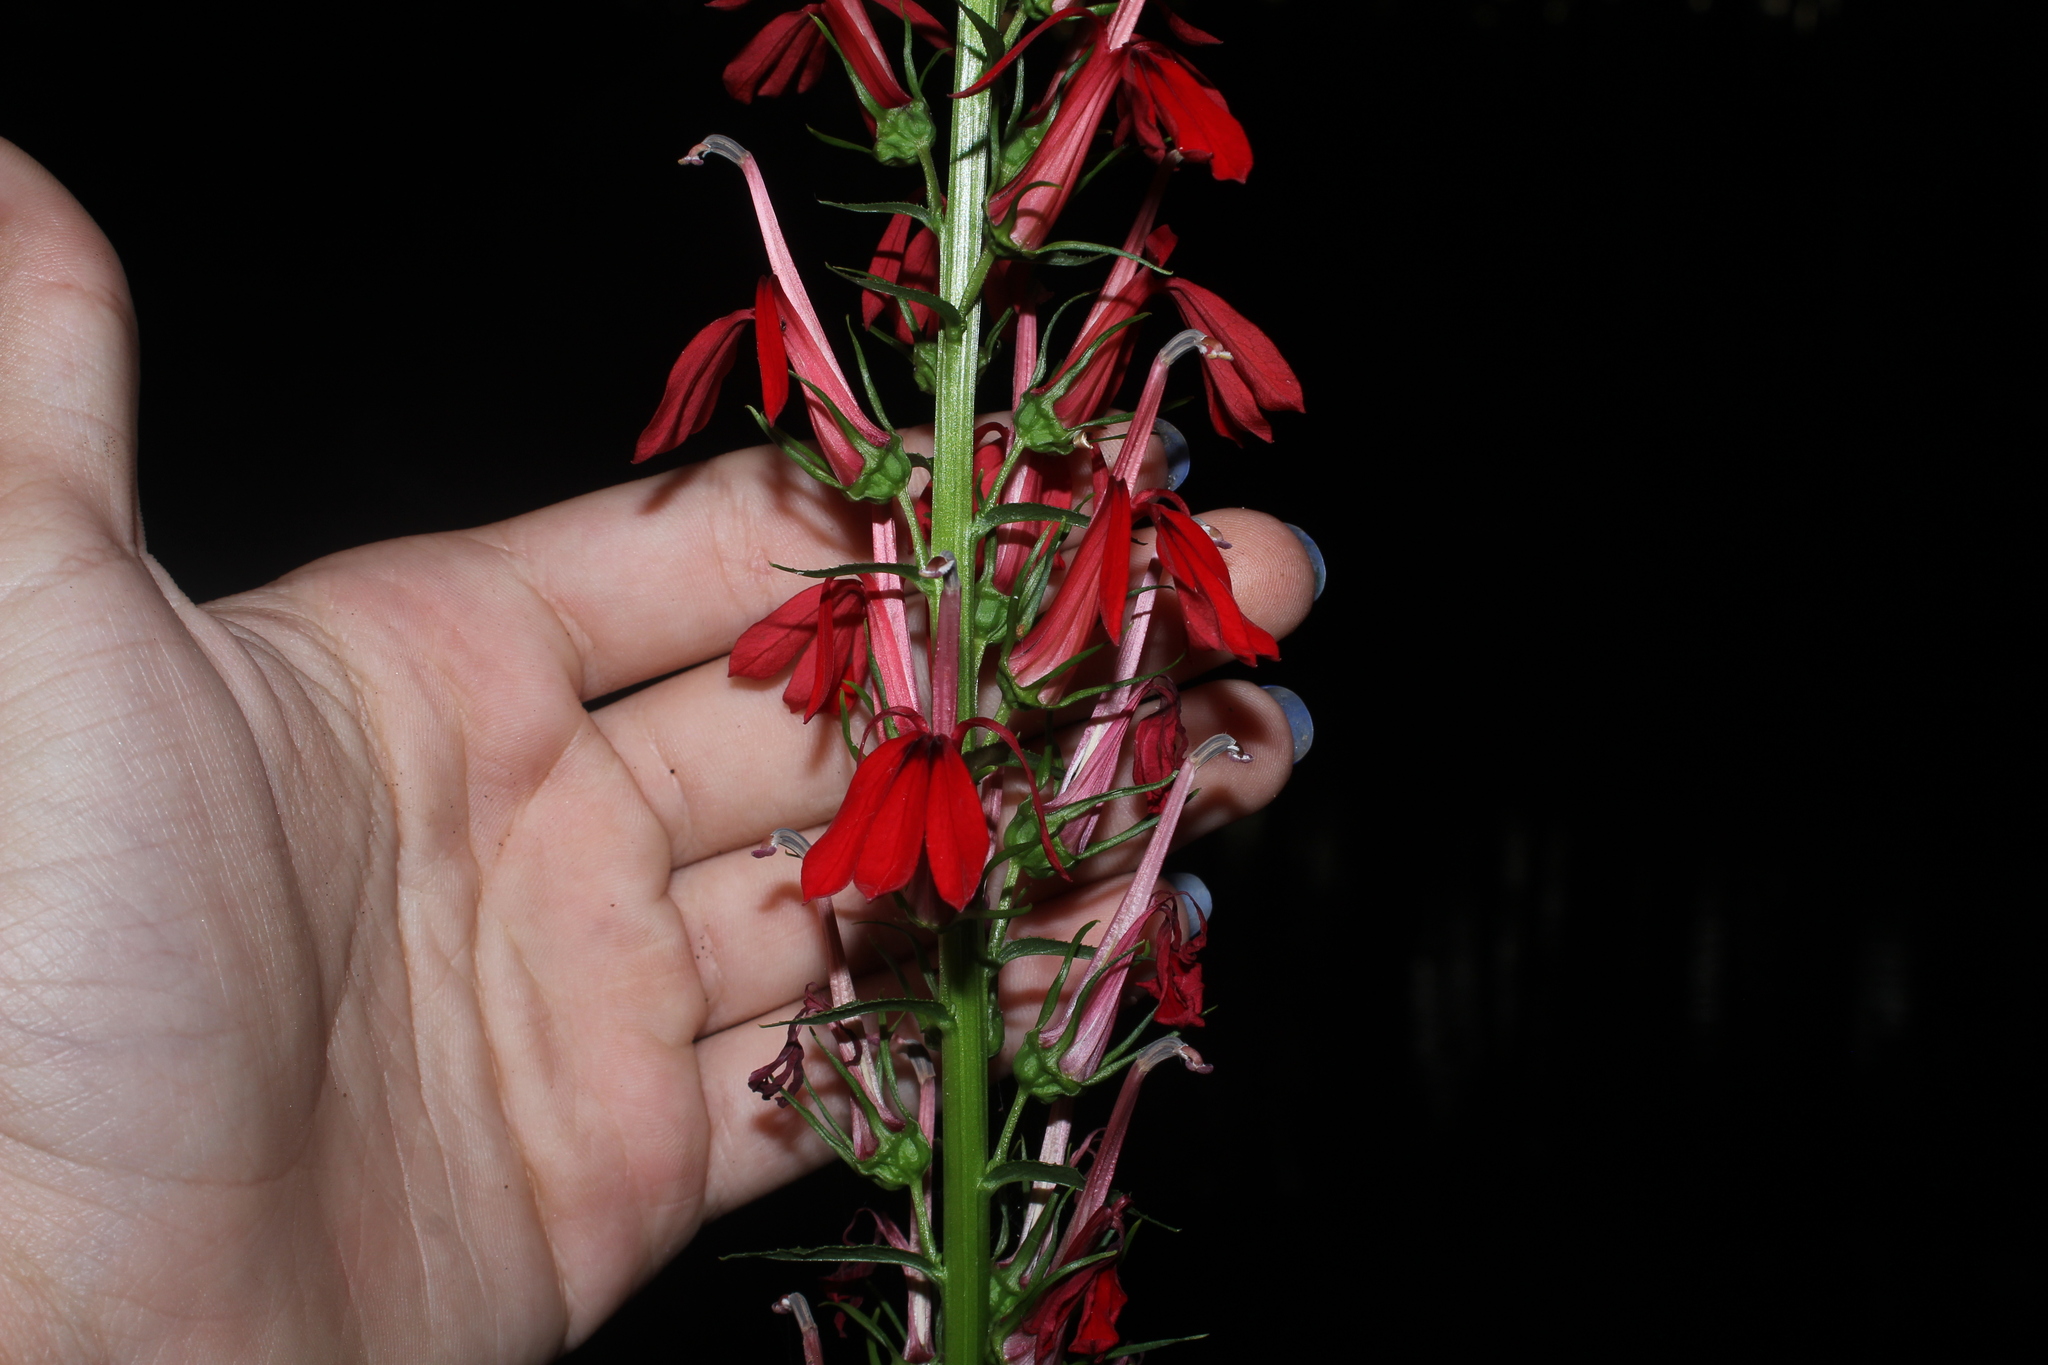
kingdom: Plantae
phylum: Tracheophyta
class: Magnoliopsida
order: Asterales
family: Campanulaceae
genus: Lobelia
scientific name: Lobelia cardinalis
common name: Cardinal flower
